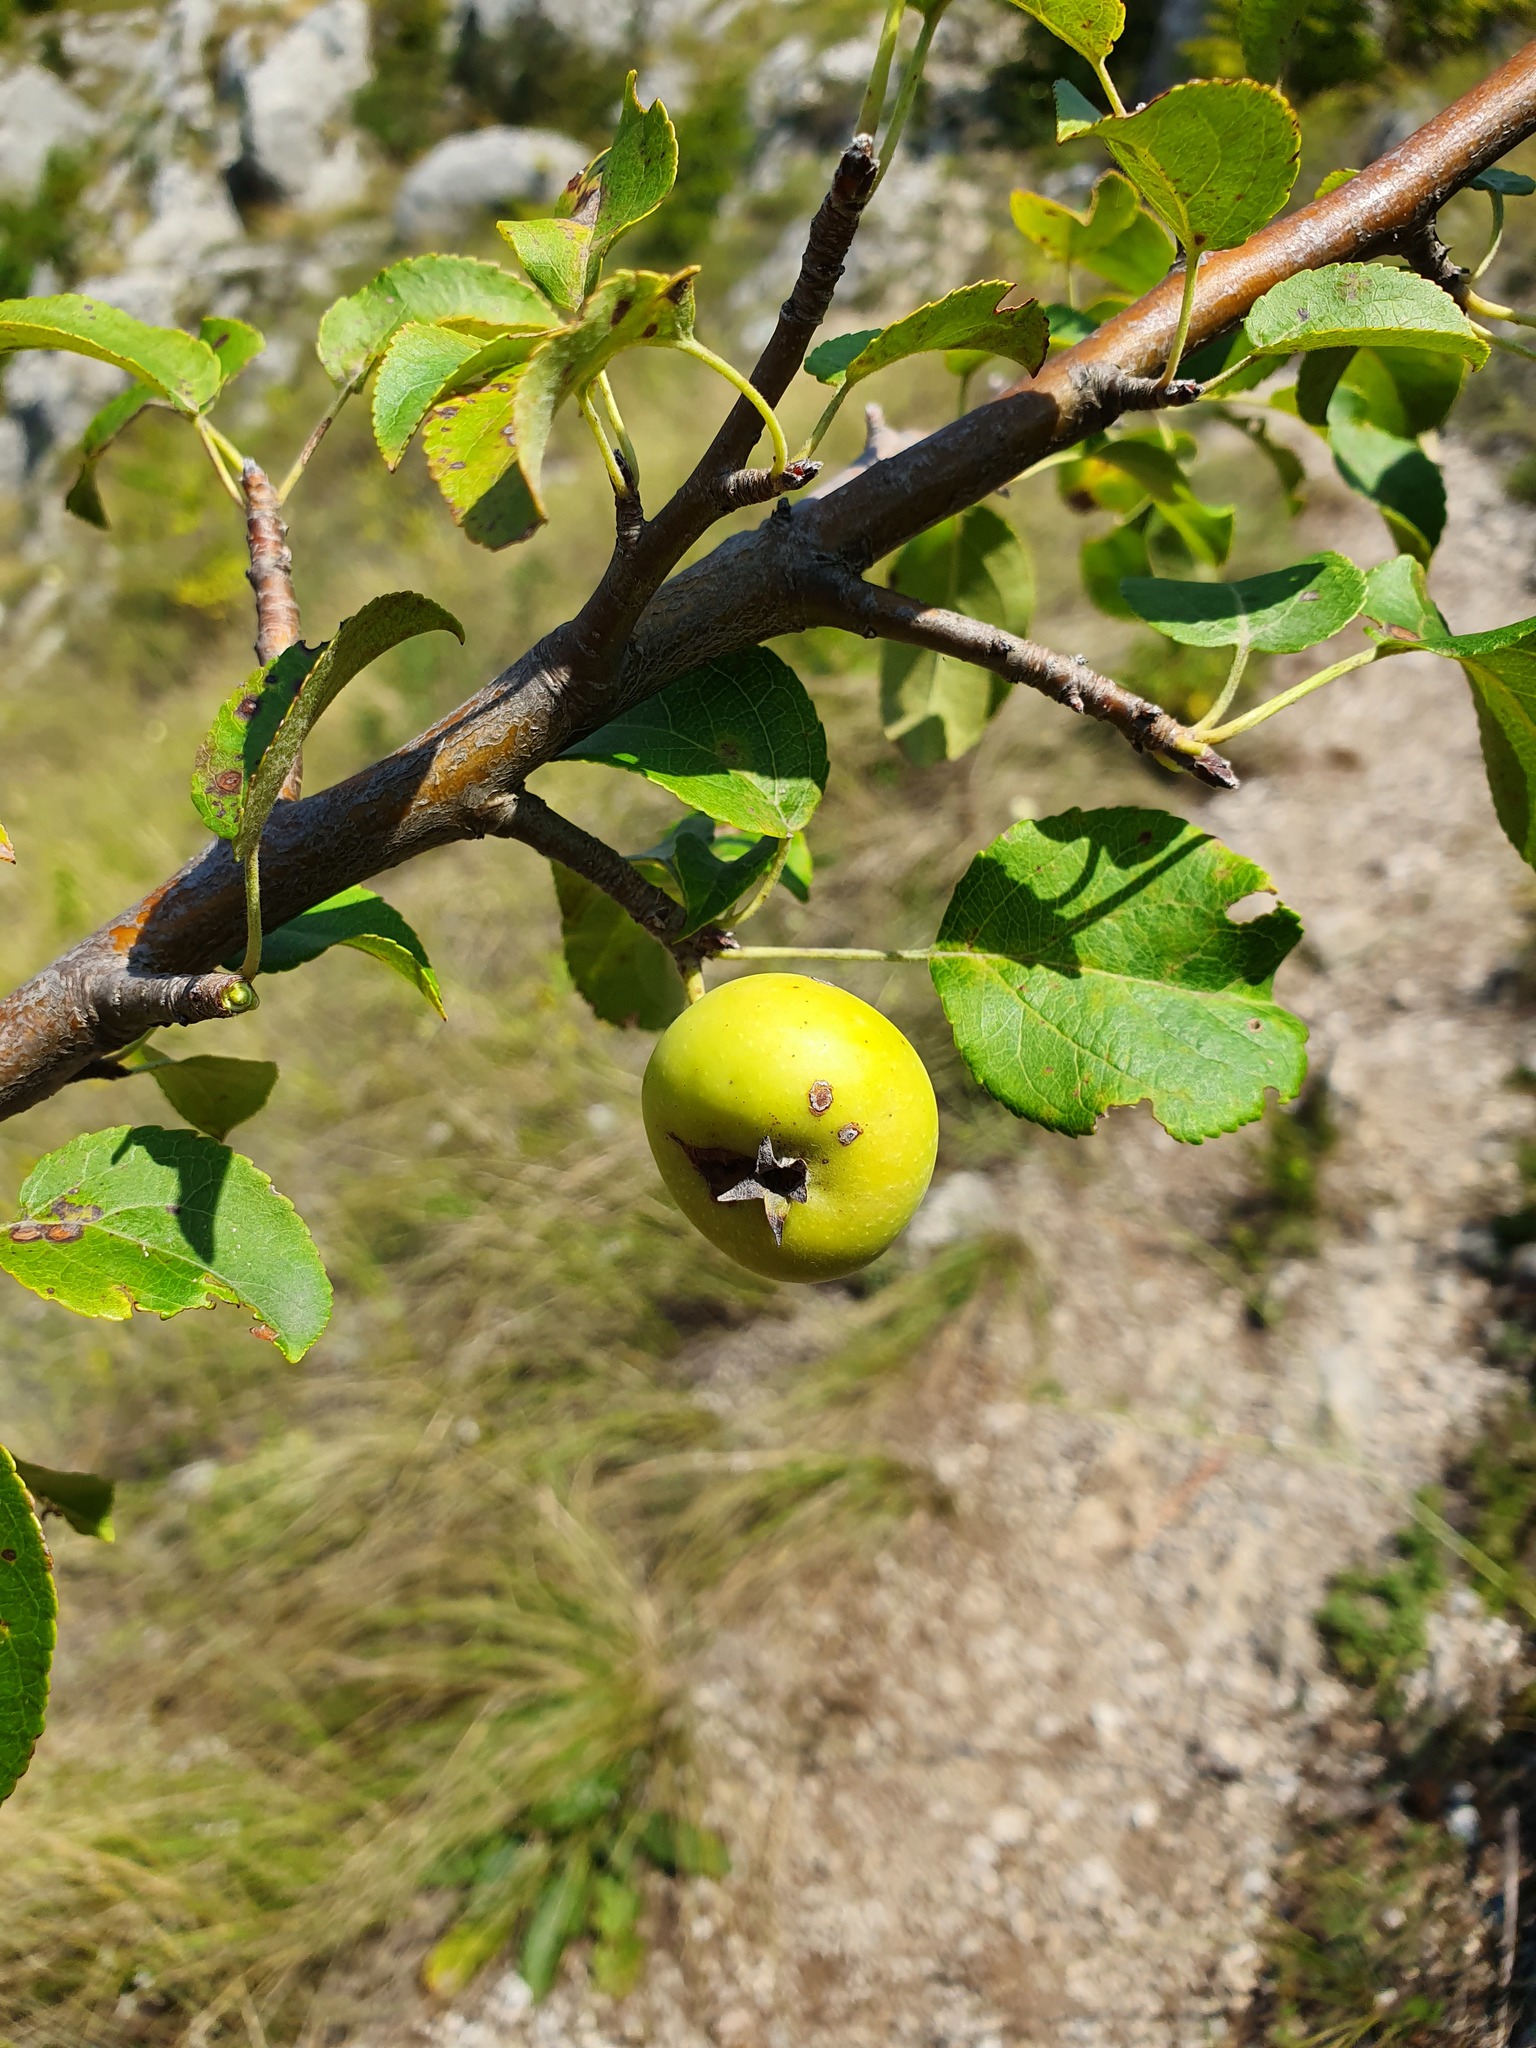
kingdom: Plantae
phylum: Tracheophyta
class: Magnoliopsida
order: Rosales
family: Rosaceae
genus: Malus
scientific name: Malus sylvestris
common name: Crab apple
